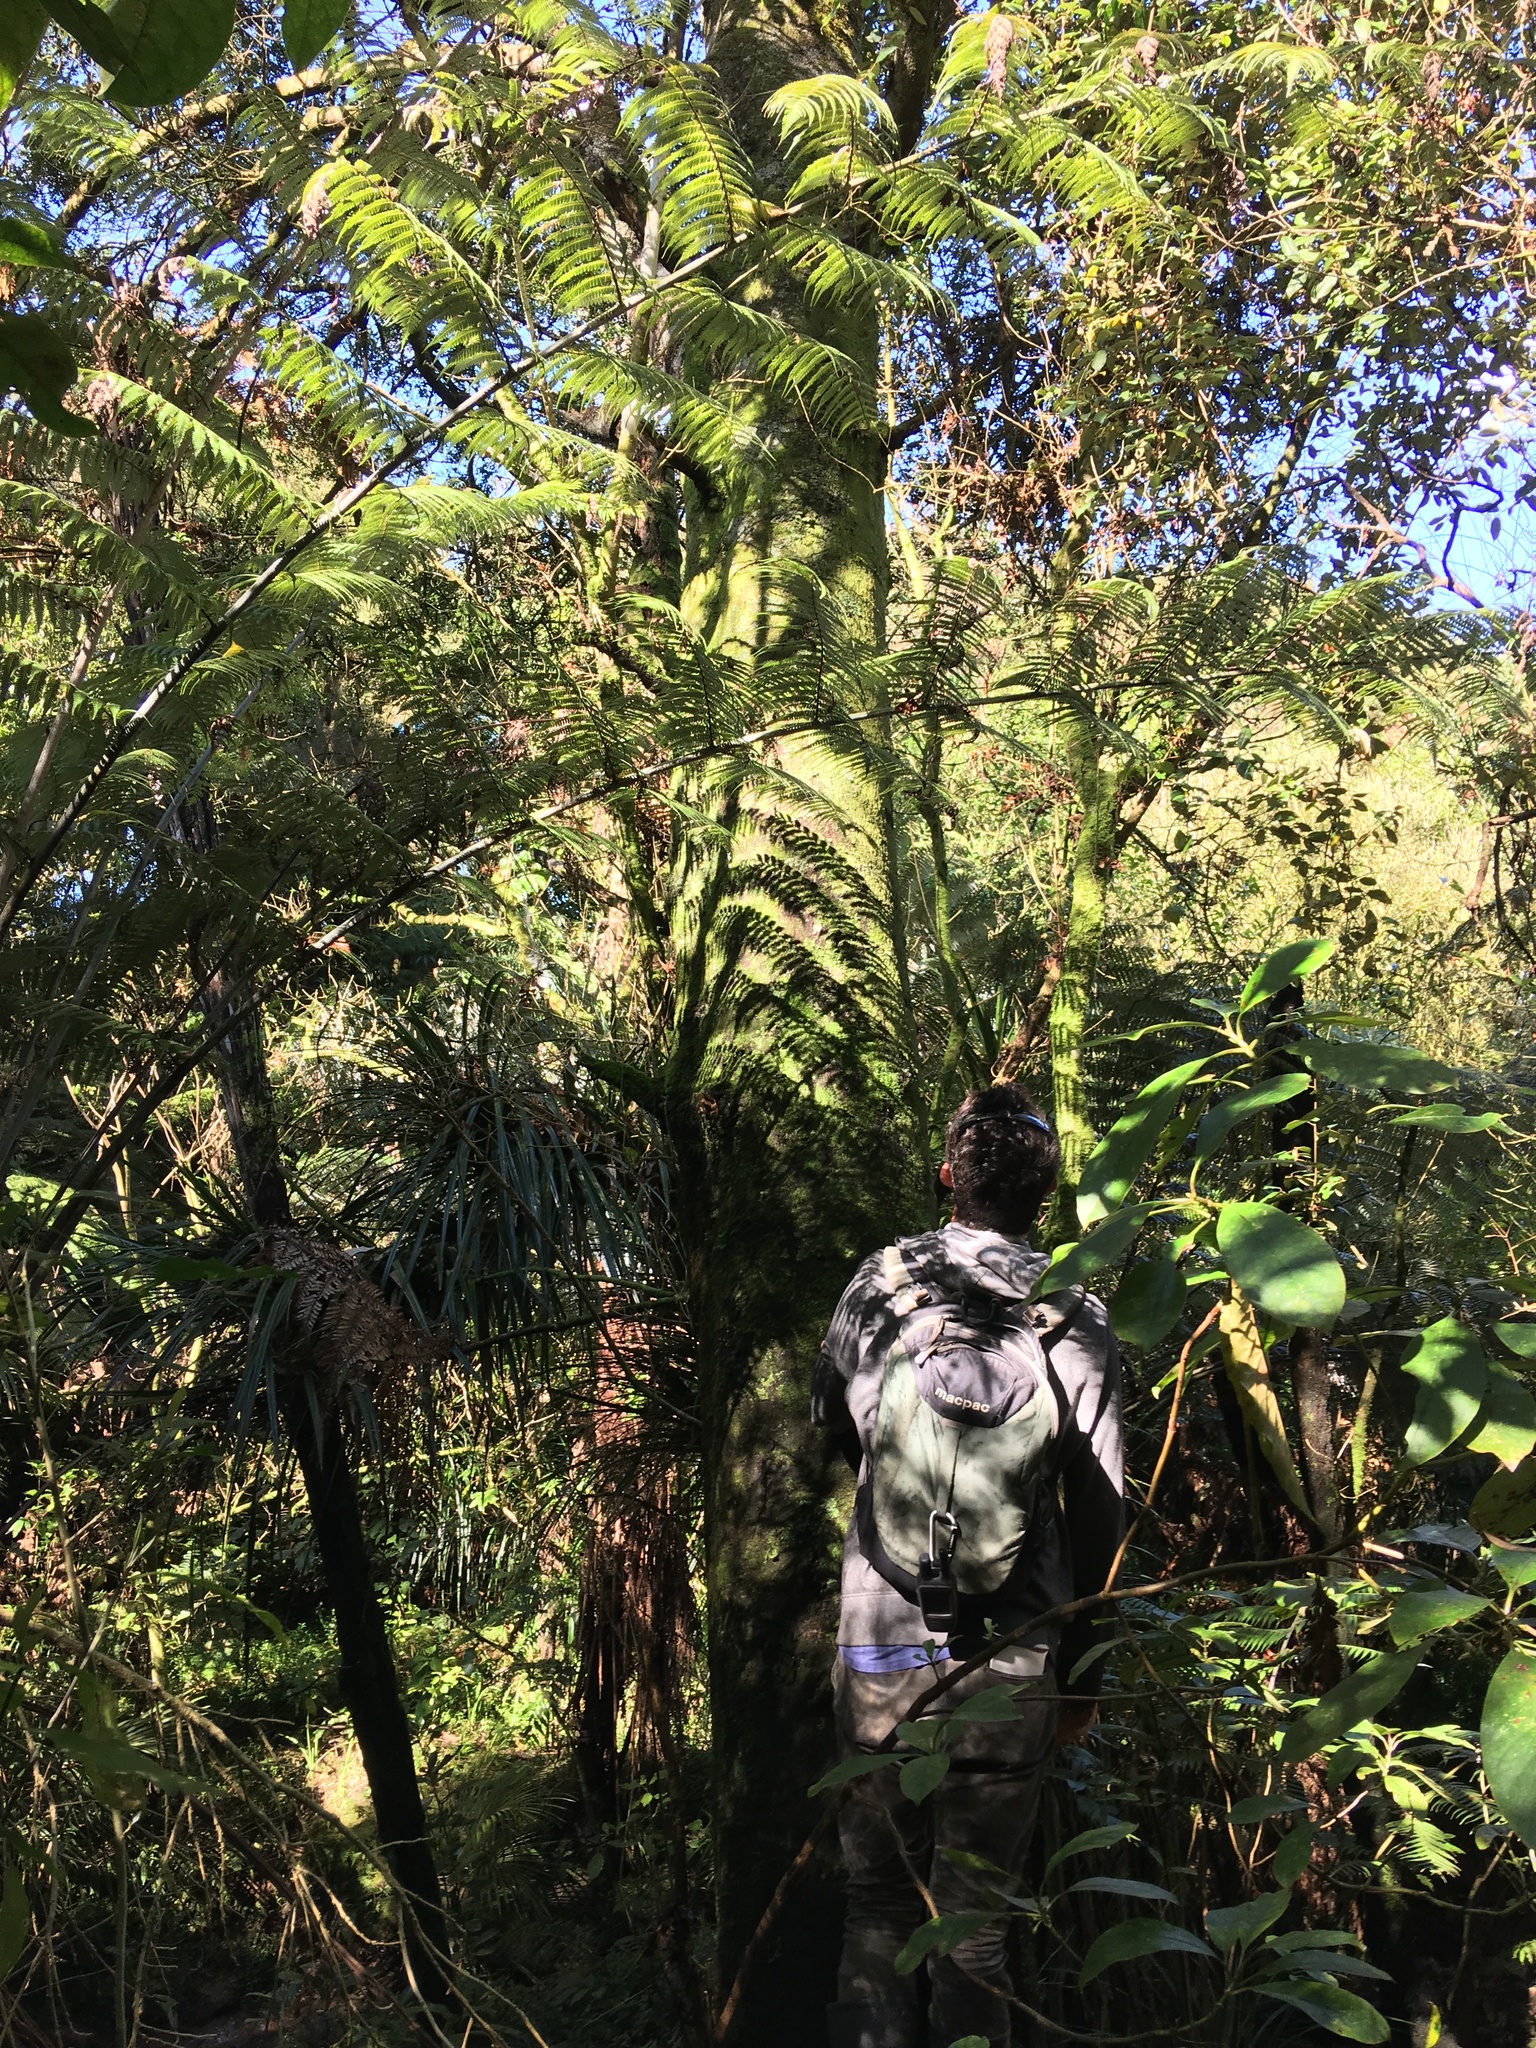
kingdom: Plantae
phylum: Tracheophyta
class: Pinopsida
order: Pinales
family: Phyllocladaceae
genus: Phyllocladus
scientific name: Phyllocladus trichomanoides
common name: Celery pine
